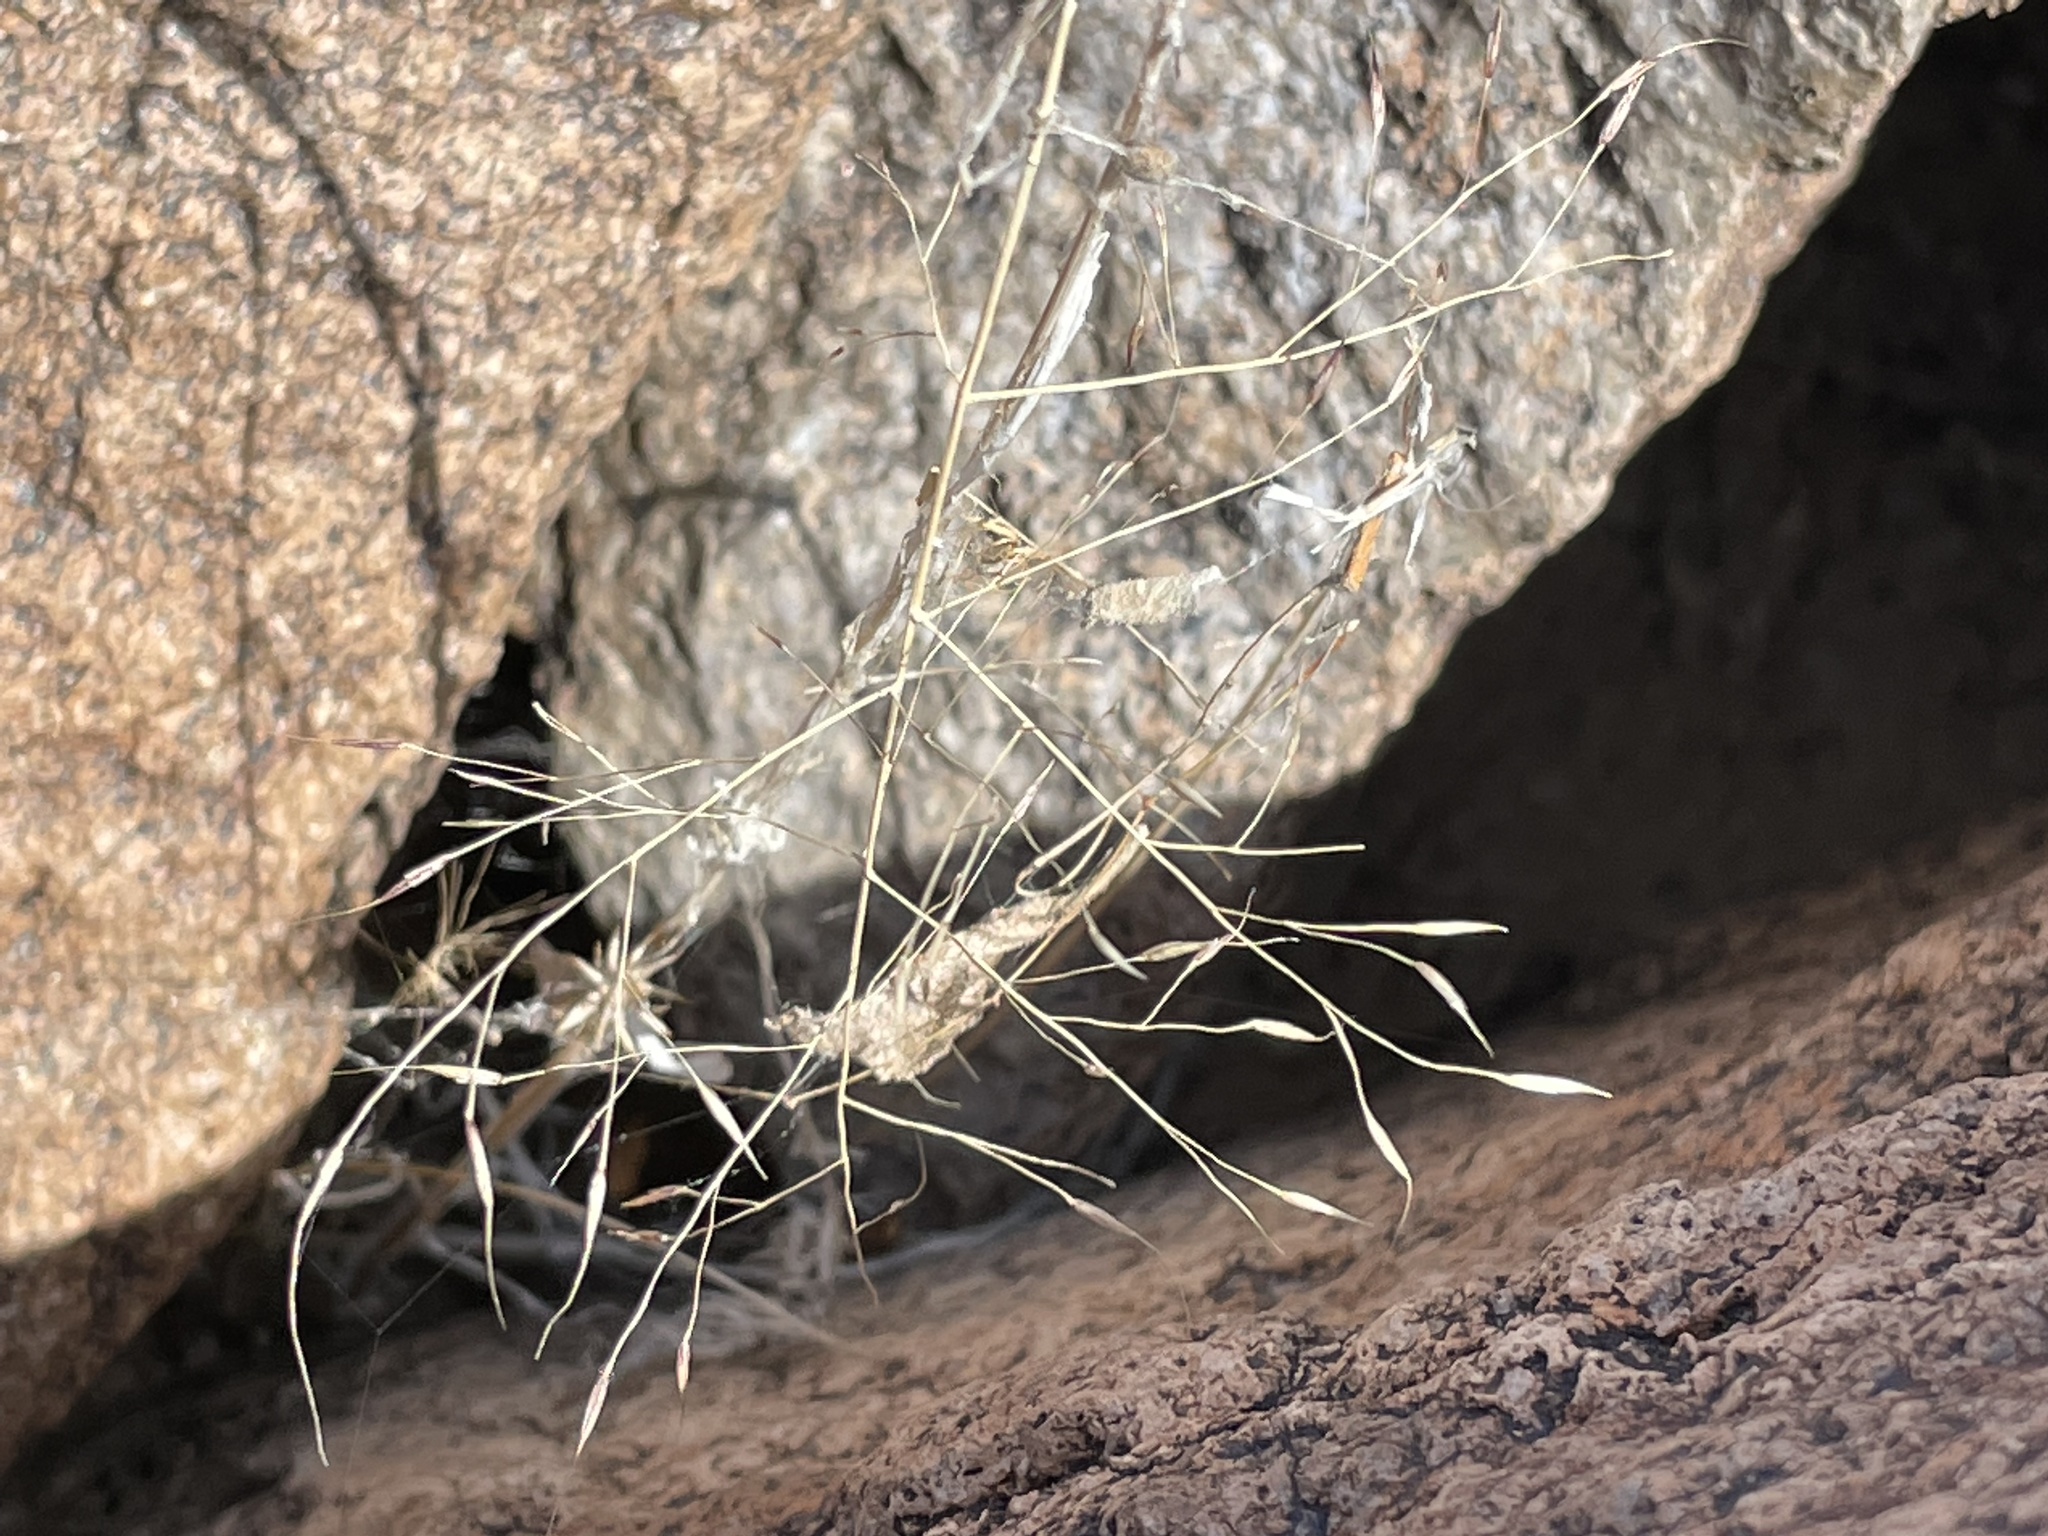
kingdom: Plantae
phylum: Tracheophyta
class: Liliopsida
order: Poales
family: Poaceae
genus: Muhlenbergia
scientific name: Muhlenbergia porteri
